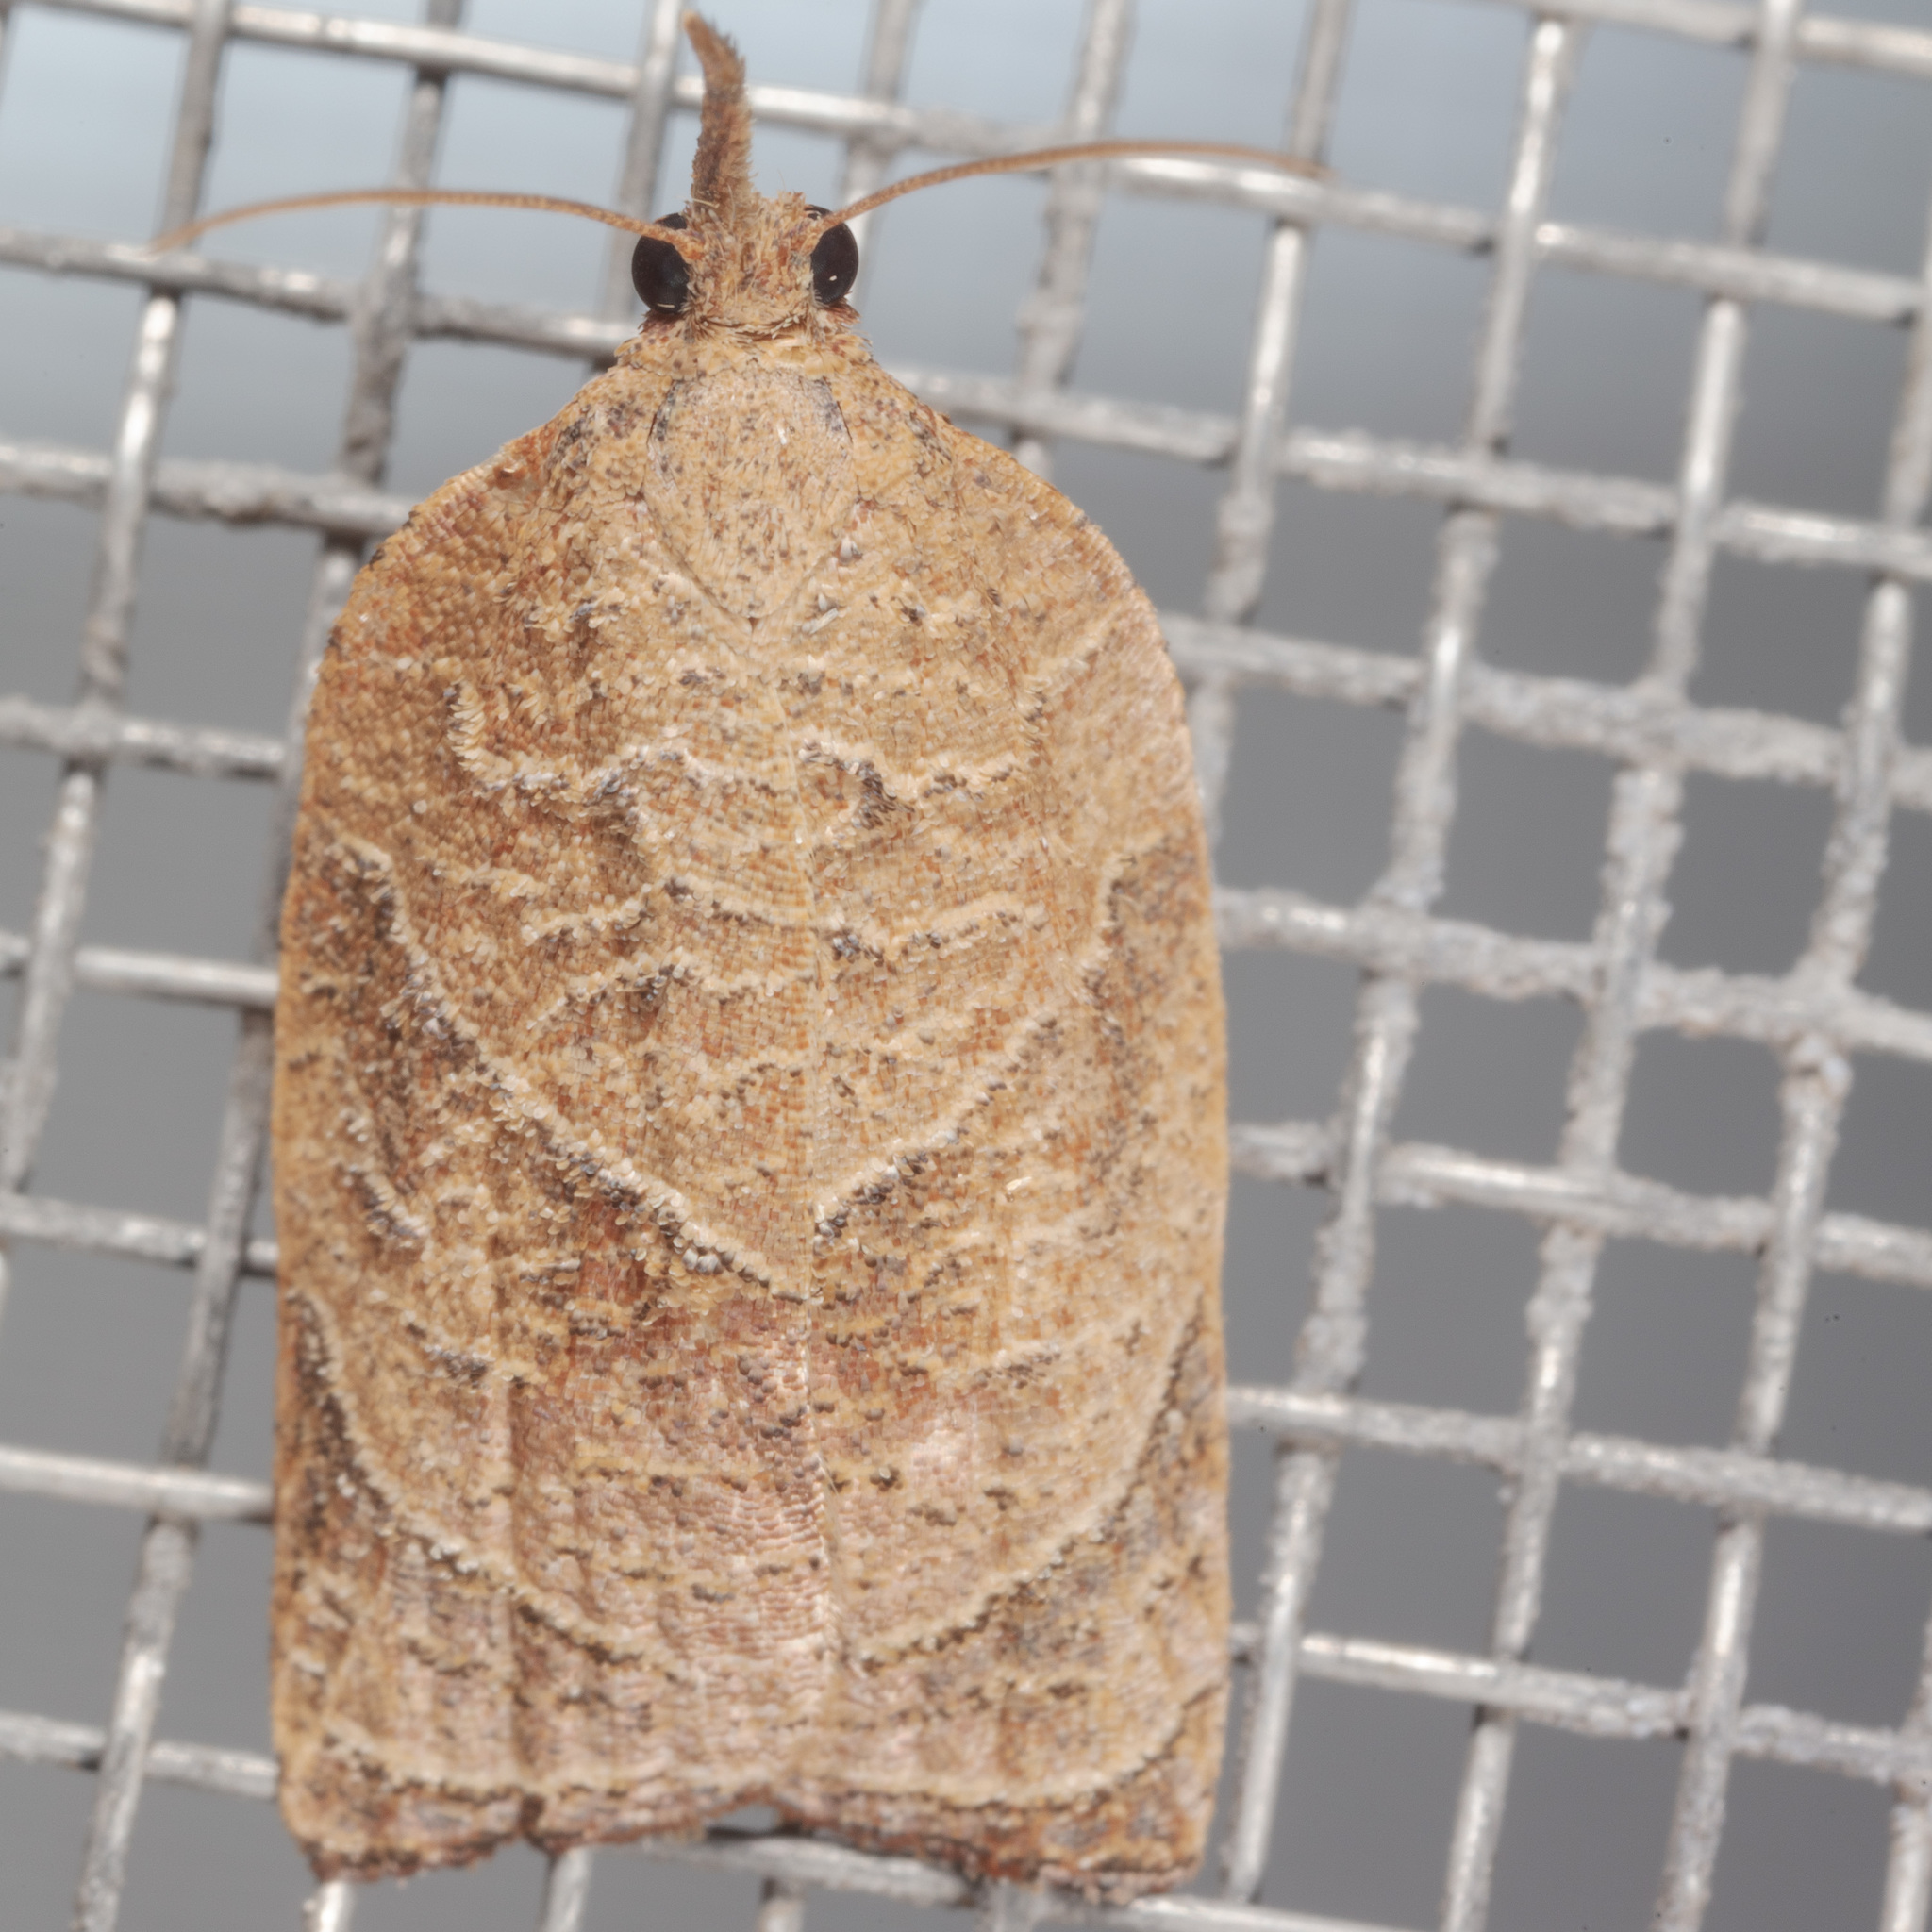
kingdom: Animalia
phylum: Arthropoda
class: Insecta
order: Lepidoptera
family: Tortricidae
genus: Platynota
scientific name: Platynota rostrana
